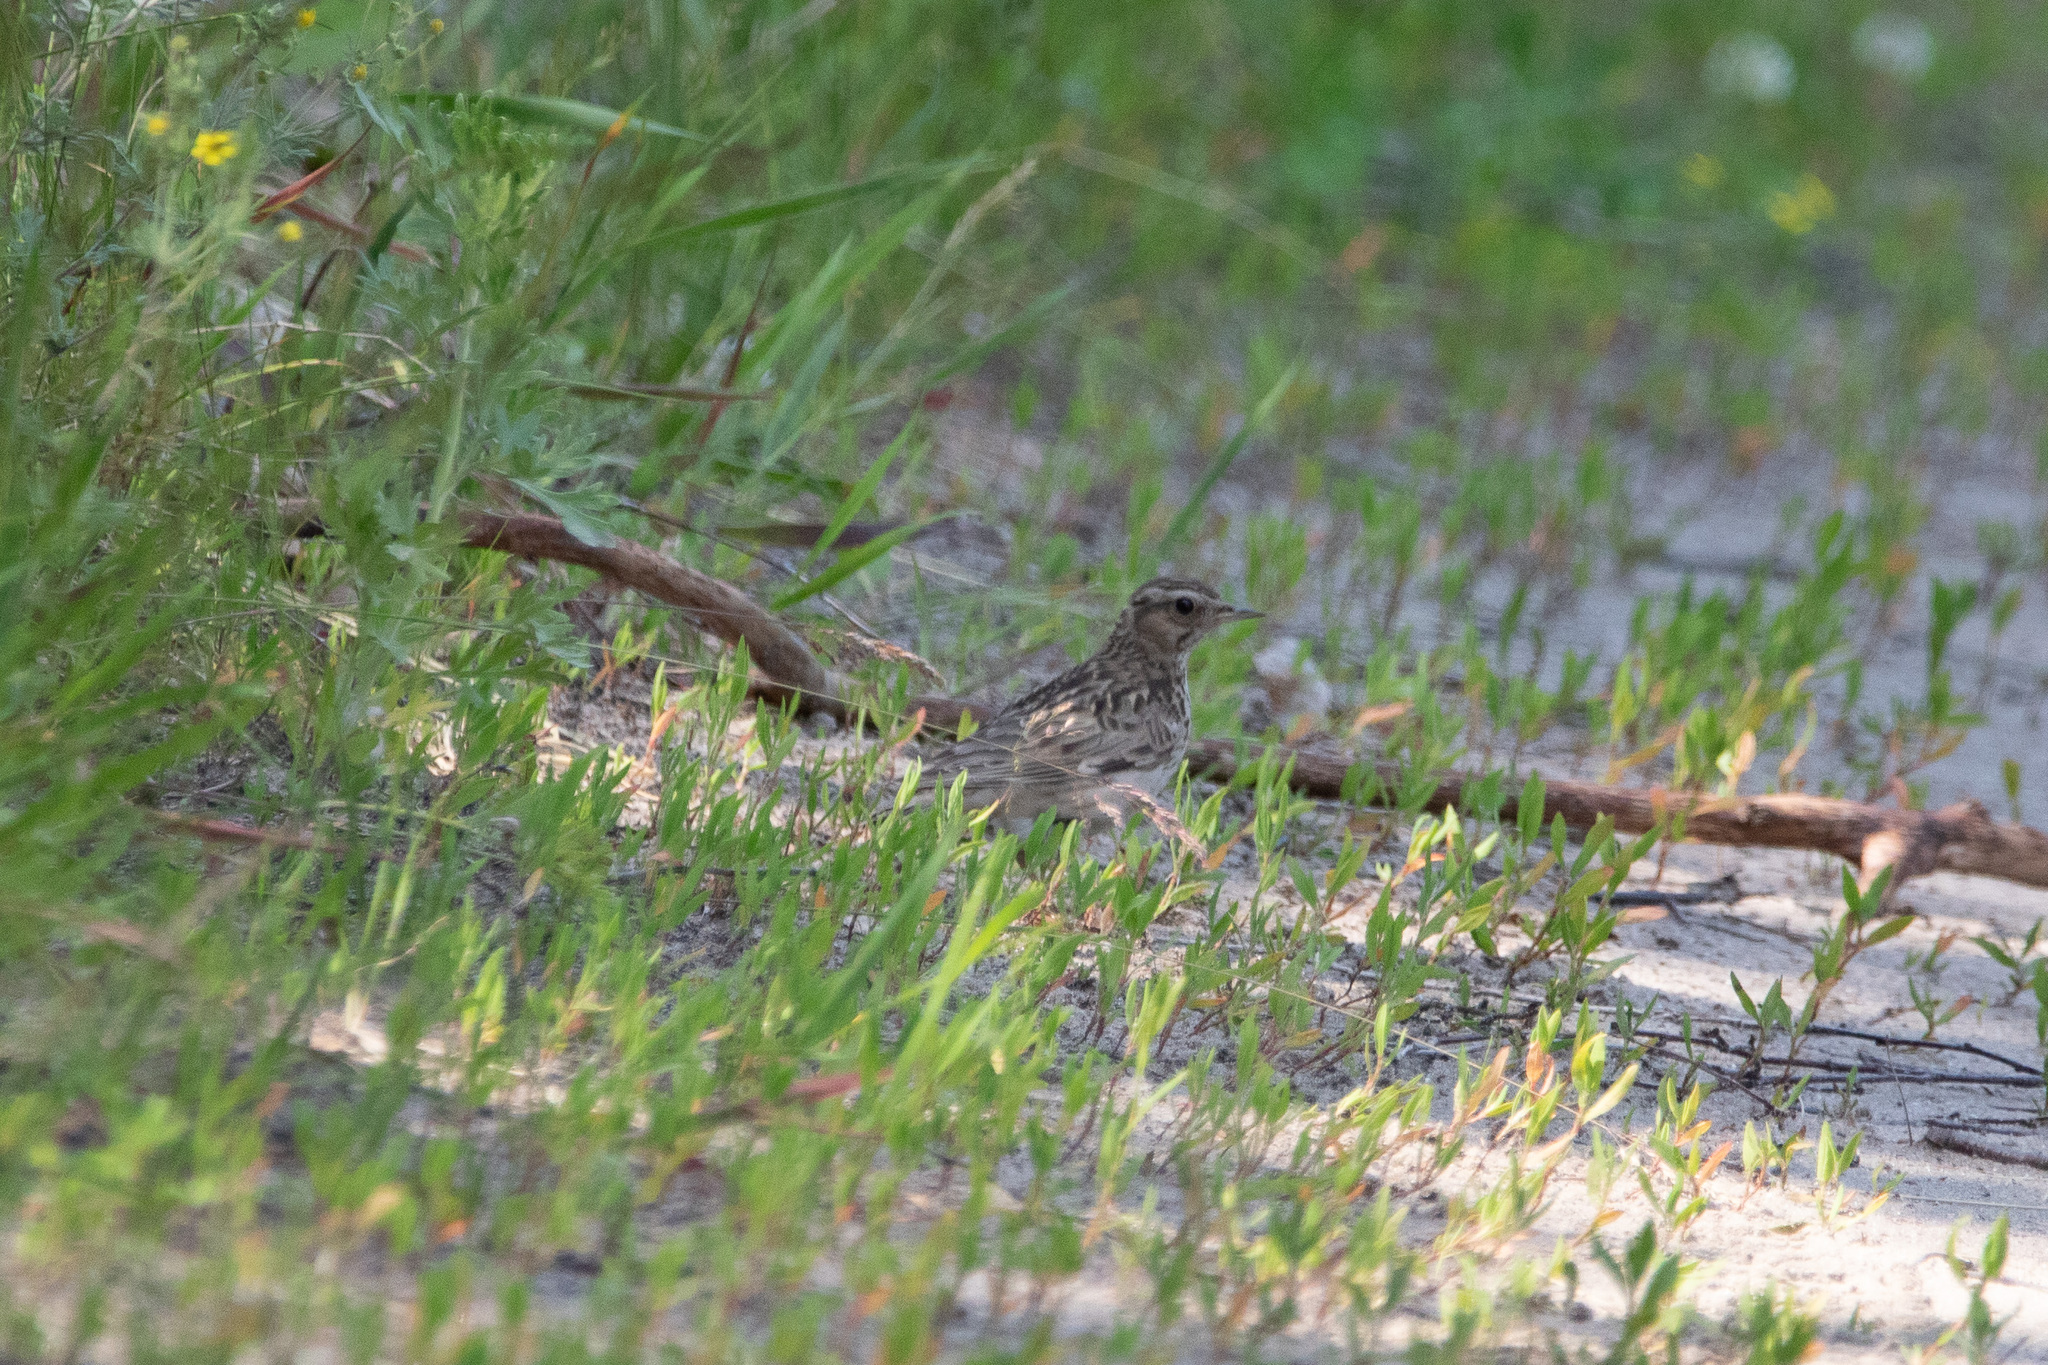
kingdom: Animalia
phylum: Chordata
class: Aves
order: Passeriformes
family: Alaudidae
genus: Lullula
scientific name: Lullula arborea
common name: Woodlark
